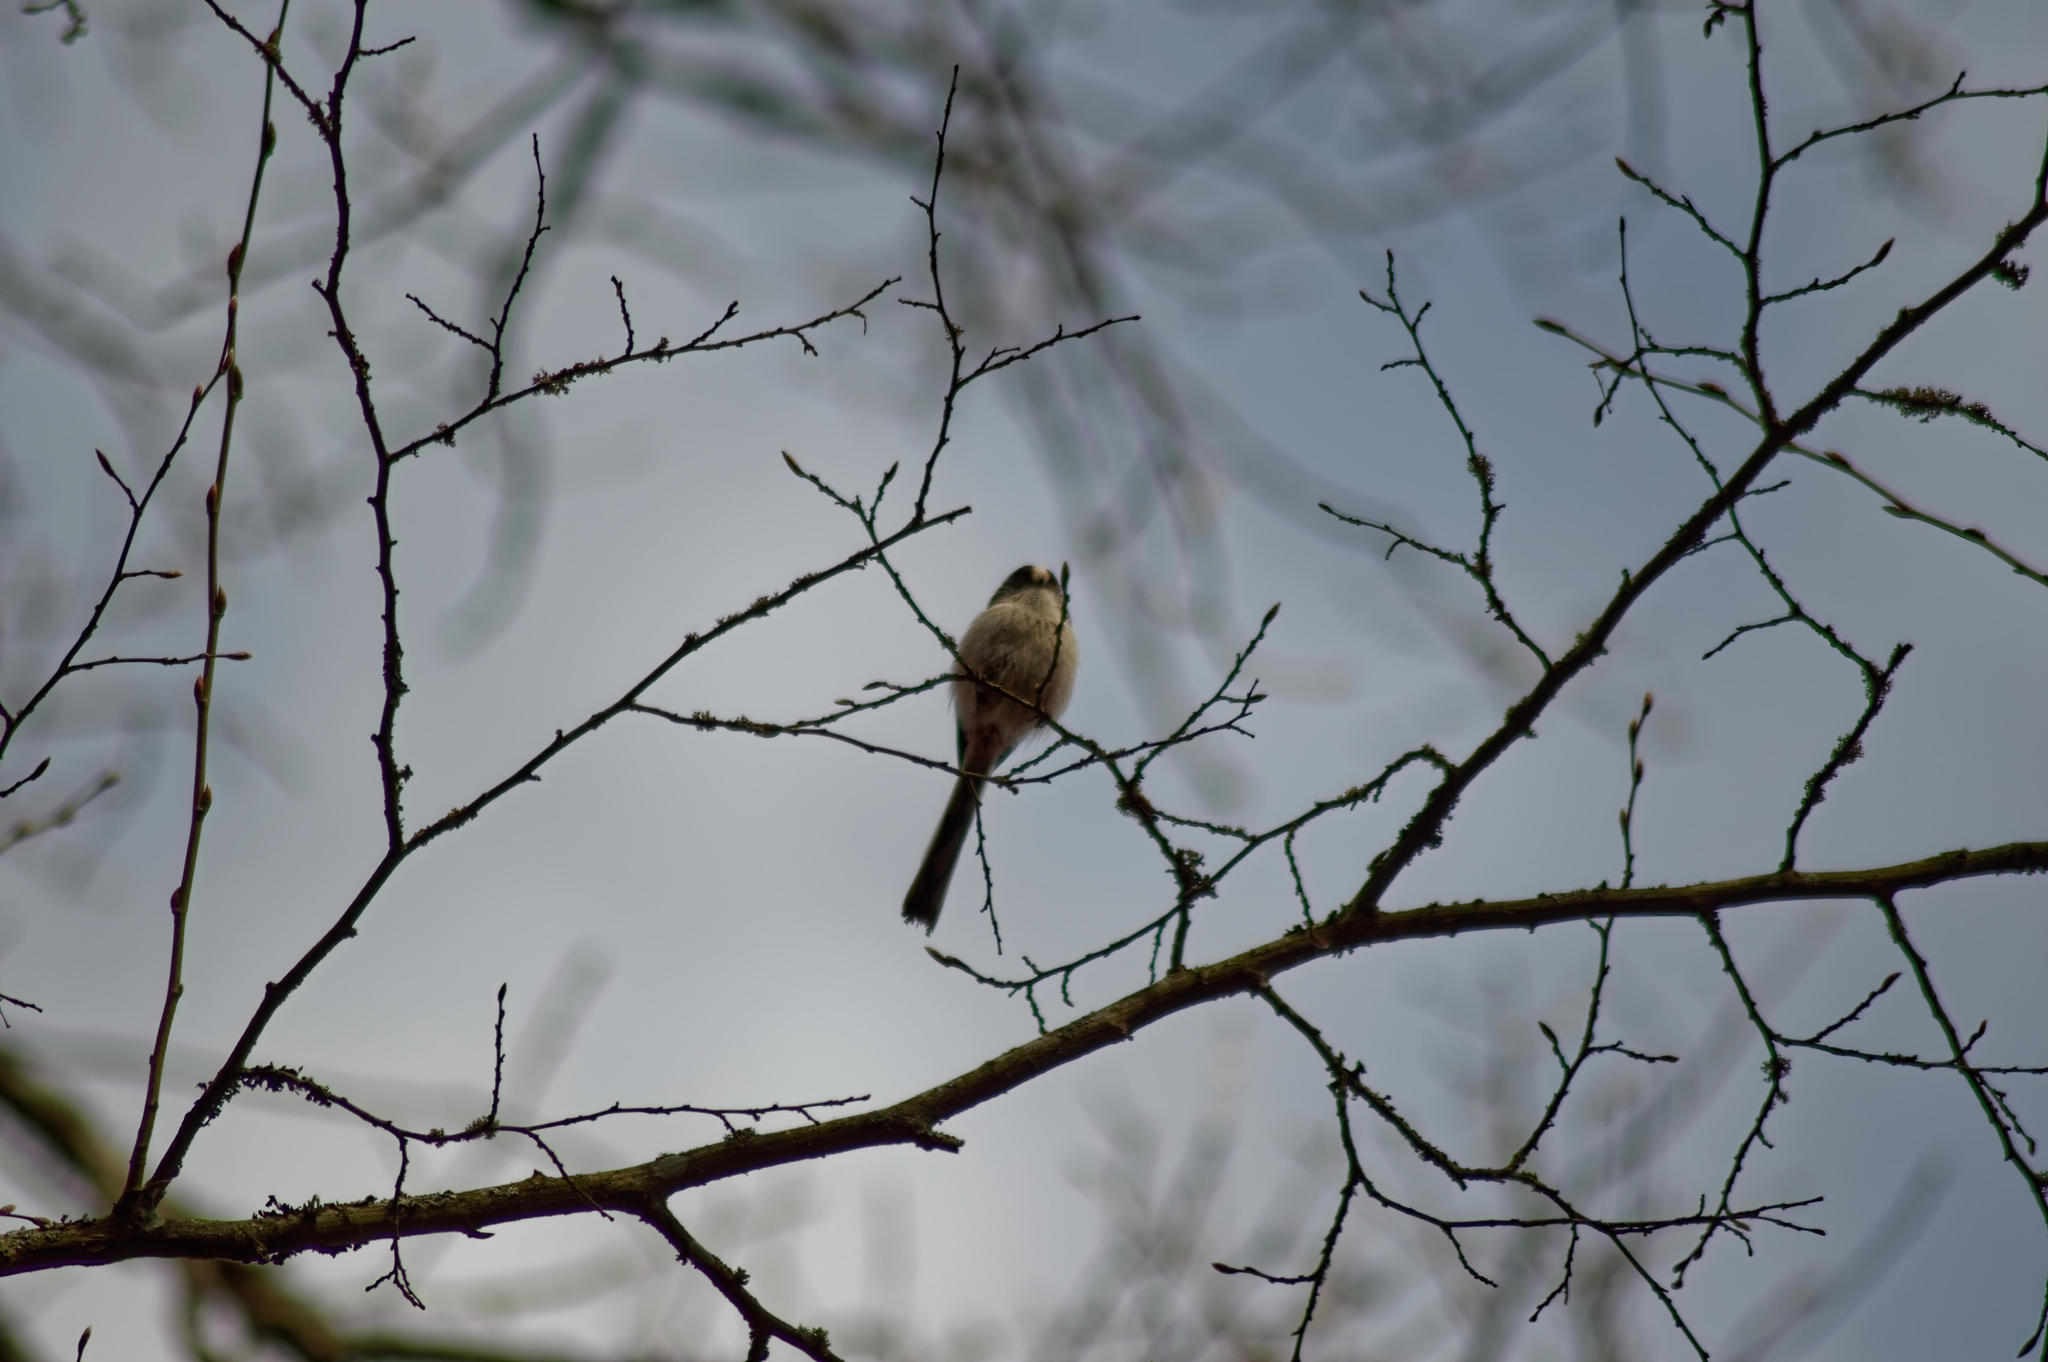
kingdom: Animalia
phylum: Chordata
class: Aves
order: Passeriformes
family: Aegithalidae
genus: Aegithalos
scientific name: Aegithalos caudatus
